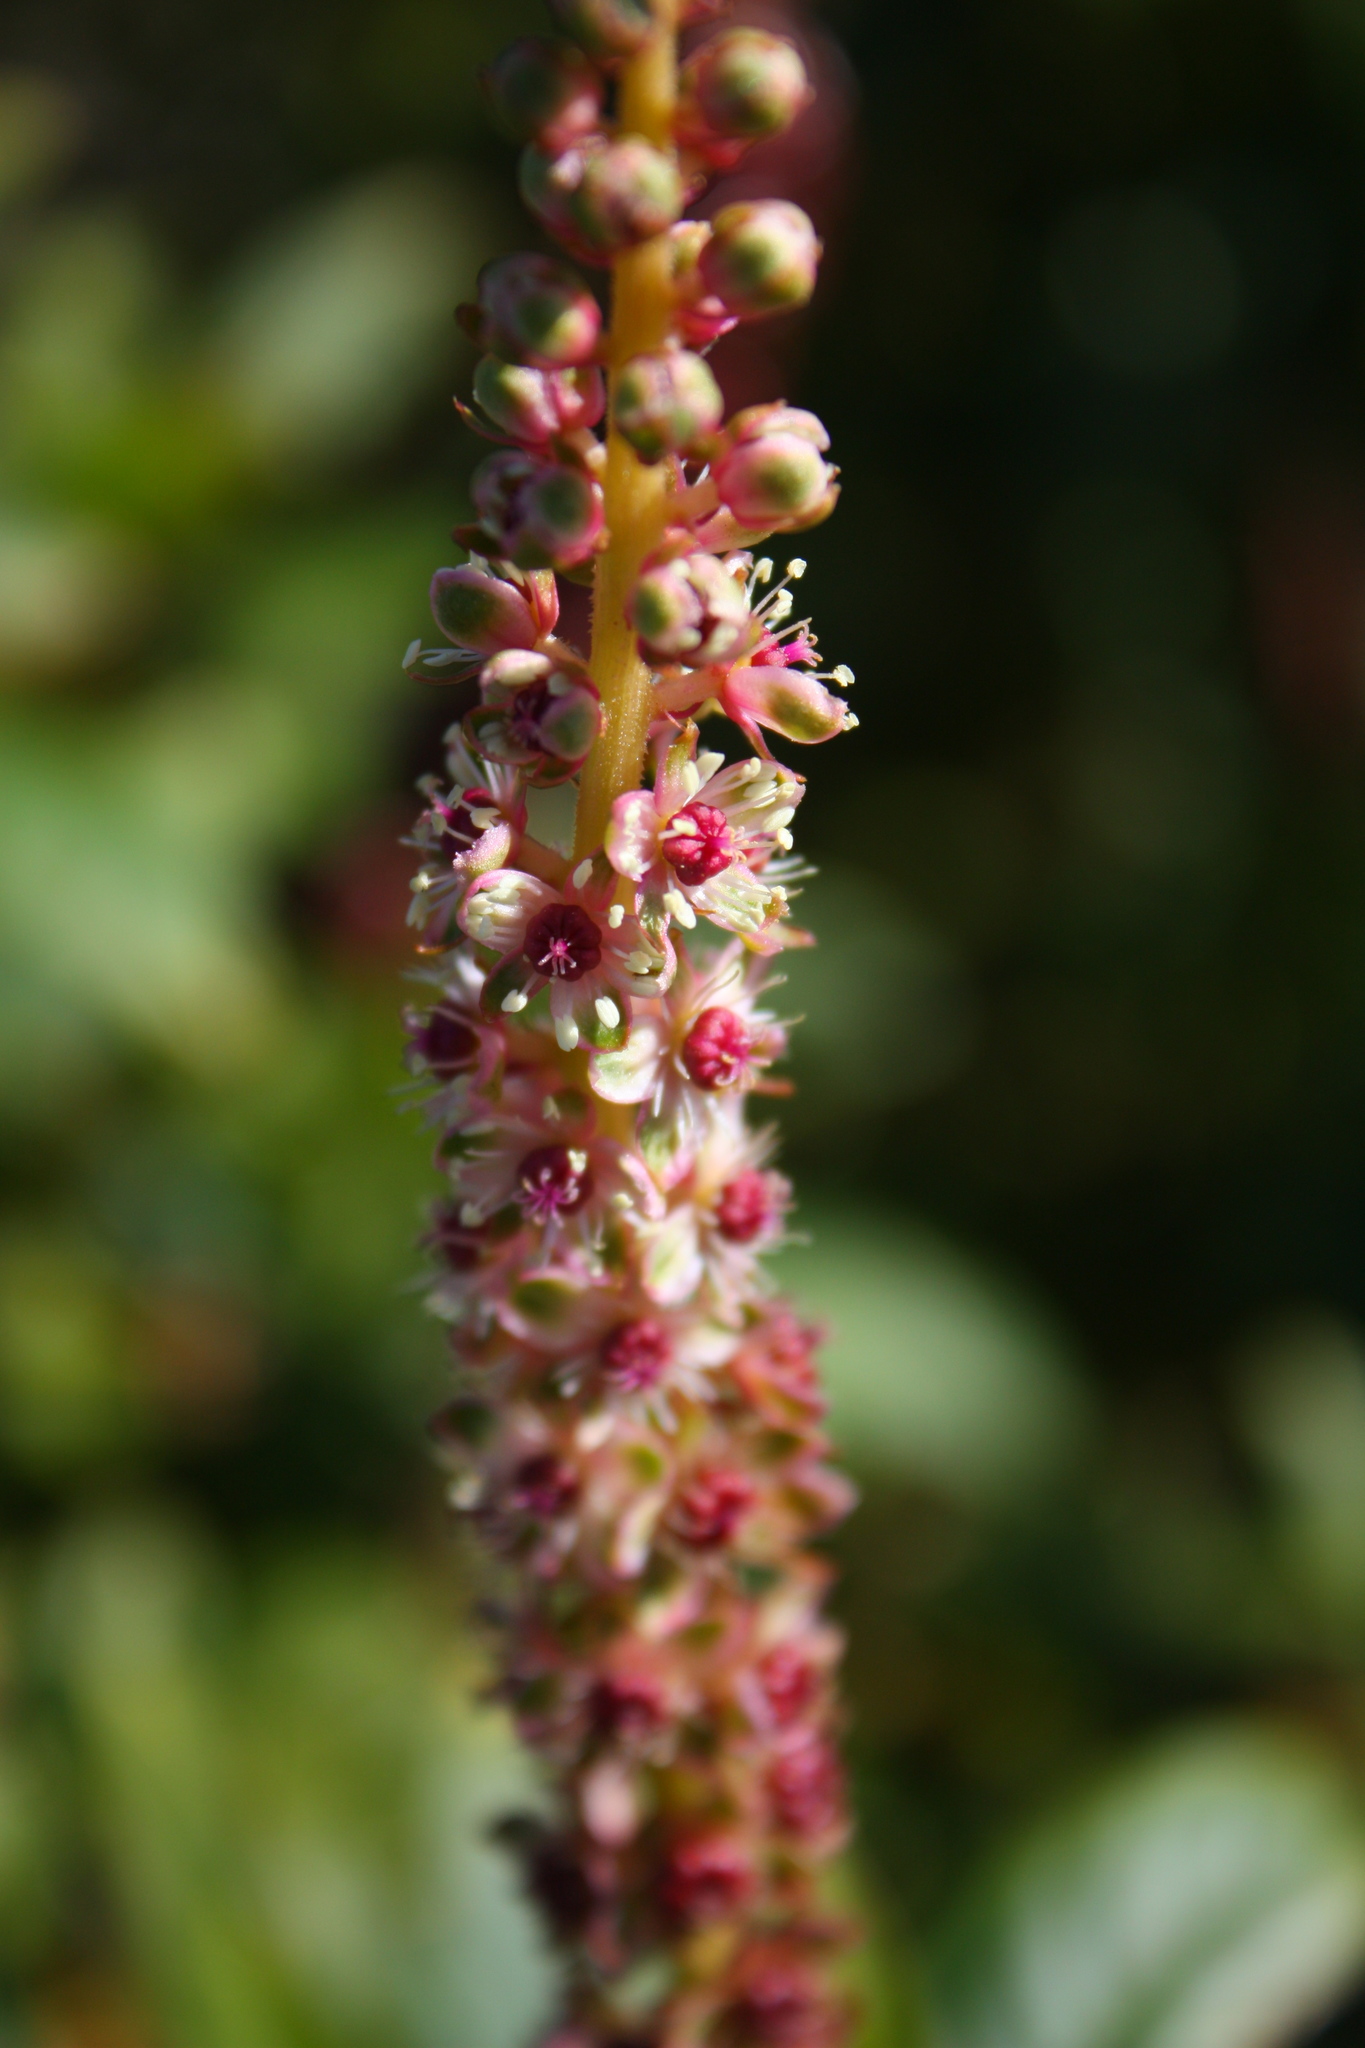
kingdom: Plantae
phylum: Tracheophyta
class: Magnoliopsida
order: Caryophyllales
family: Phytolaccaceae
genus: Phytolacca
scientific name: Phytolacca heterotepala
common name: Mexican pokeweed
